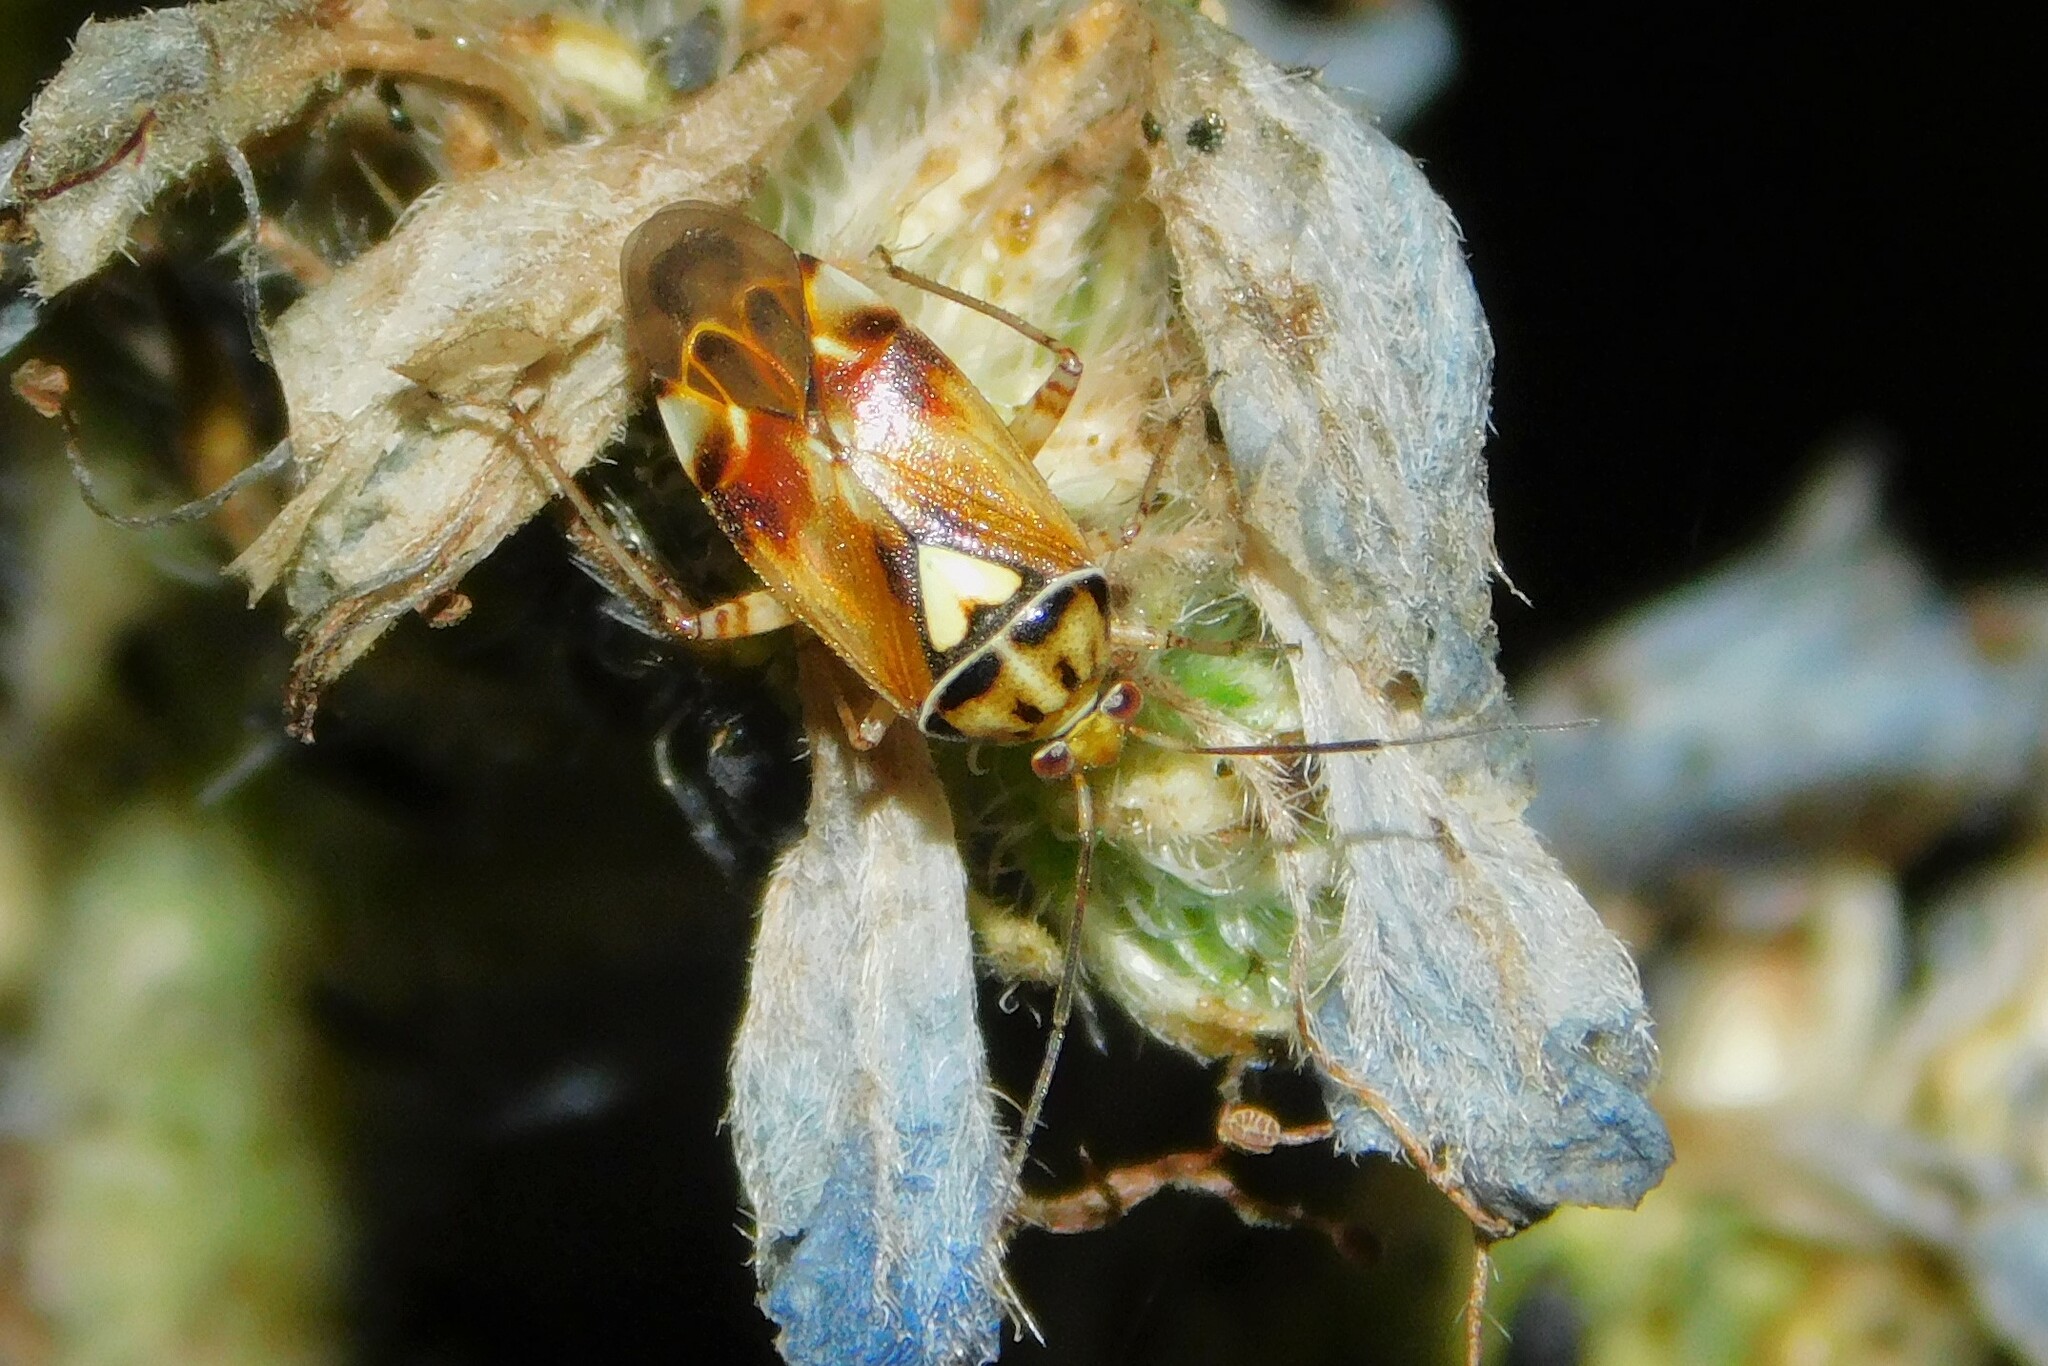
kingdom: Animalia
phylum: Arthropoda
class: Insecta
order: Hemiptera
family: Miridae
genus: Lygus
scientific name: Lygus pratensis
